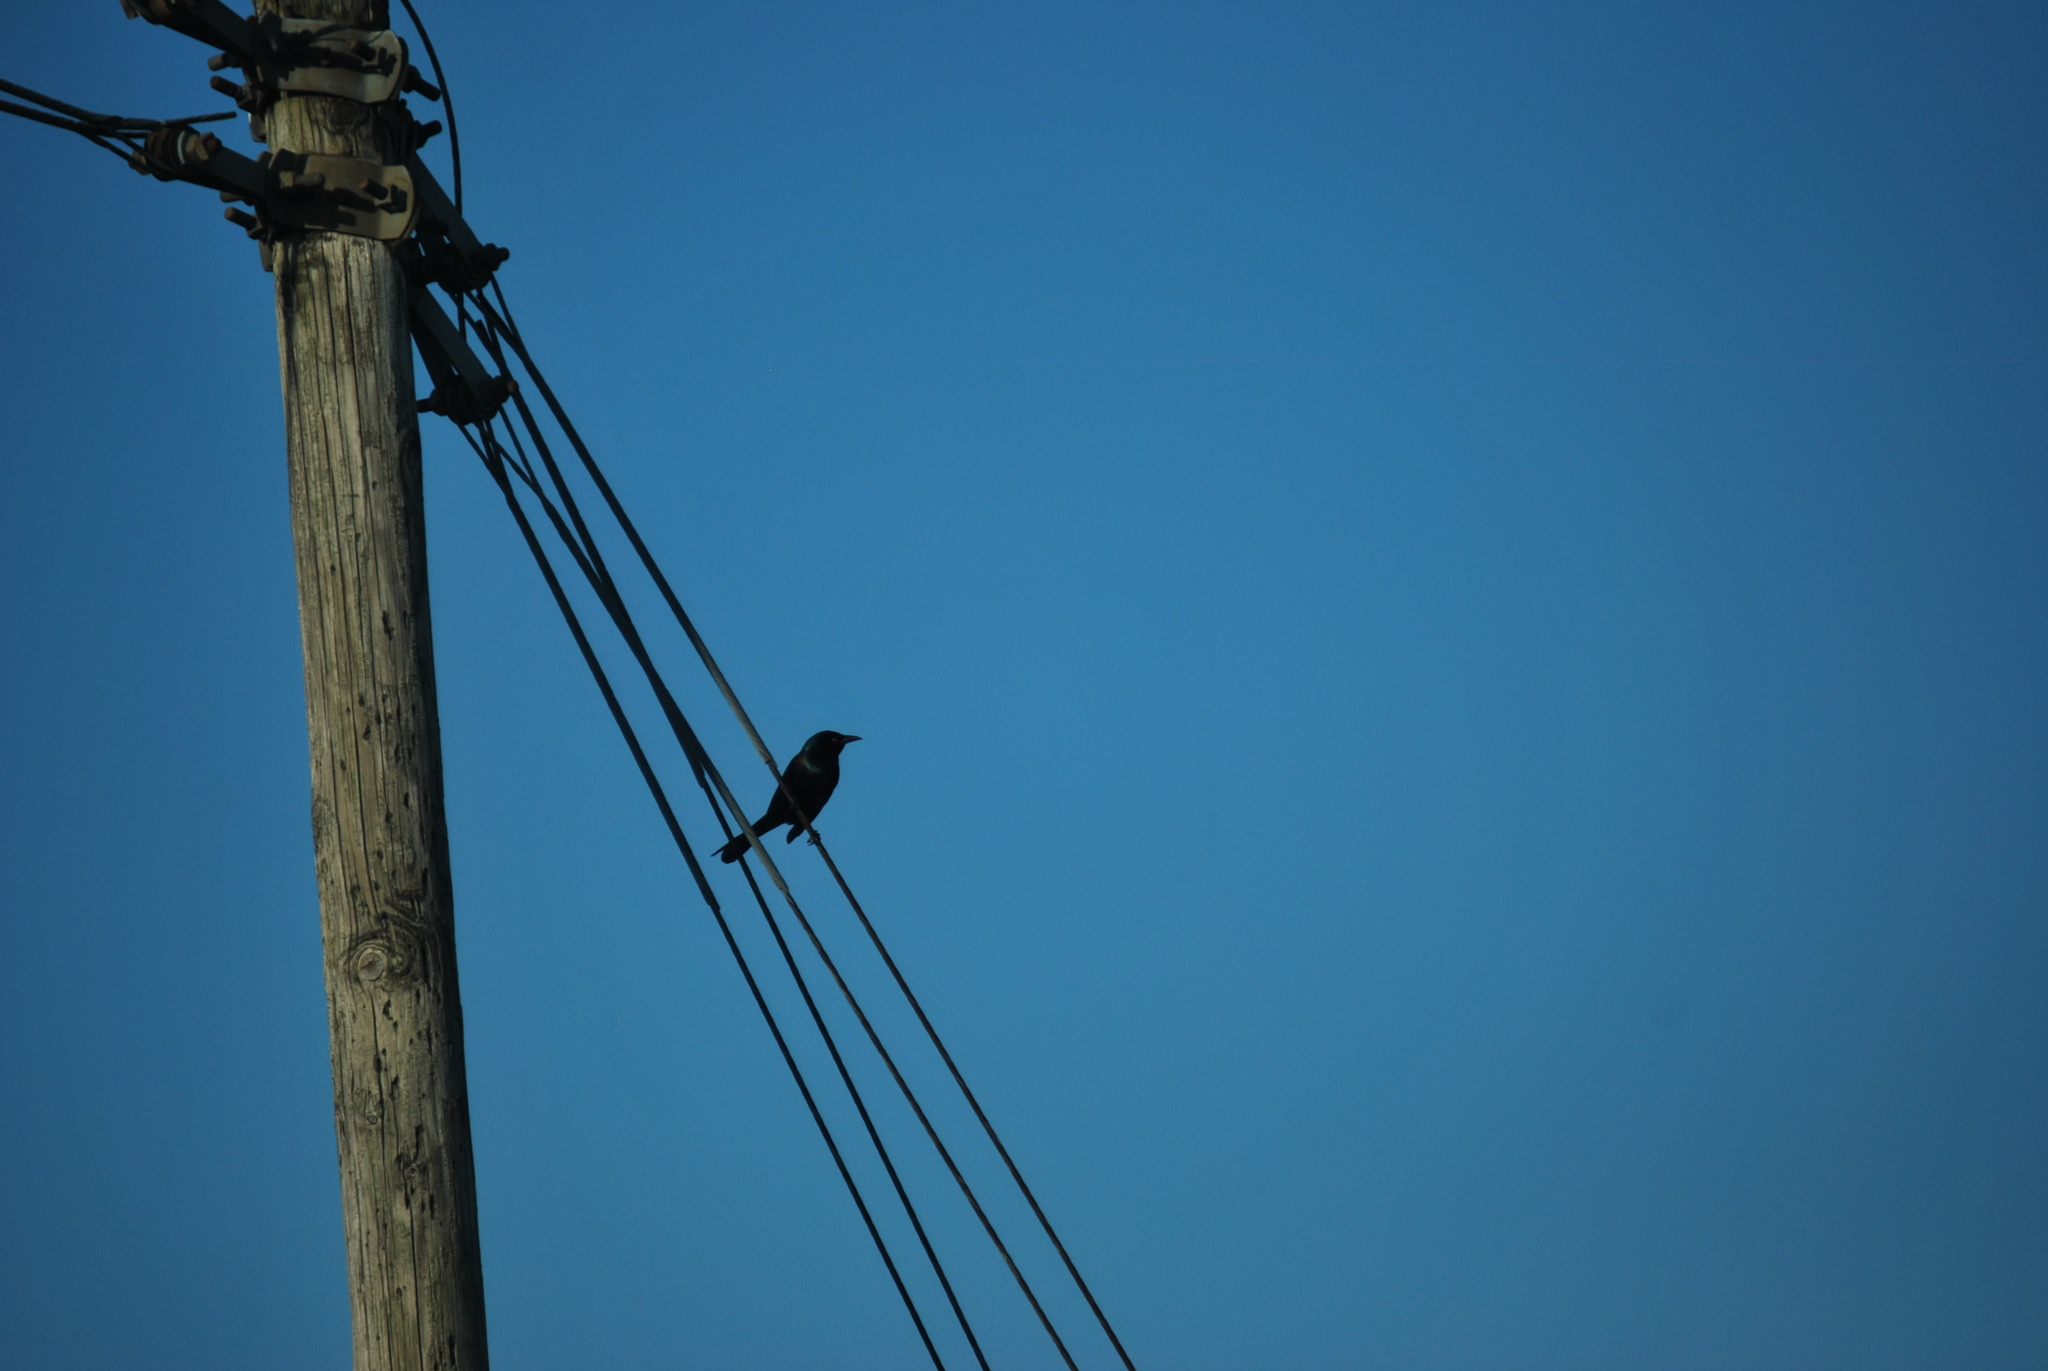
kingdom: Animalia
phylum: Chordata
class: Aves
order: Passeriformes
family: Icteridae
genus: Quiscalus
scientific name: Quiscalus quiscula
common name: Common grackle
